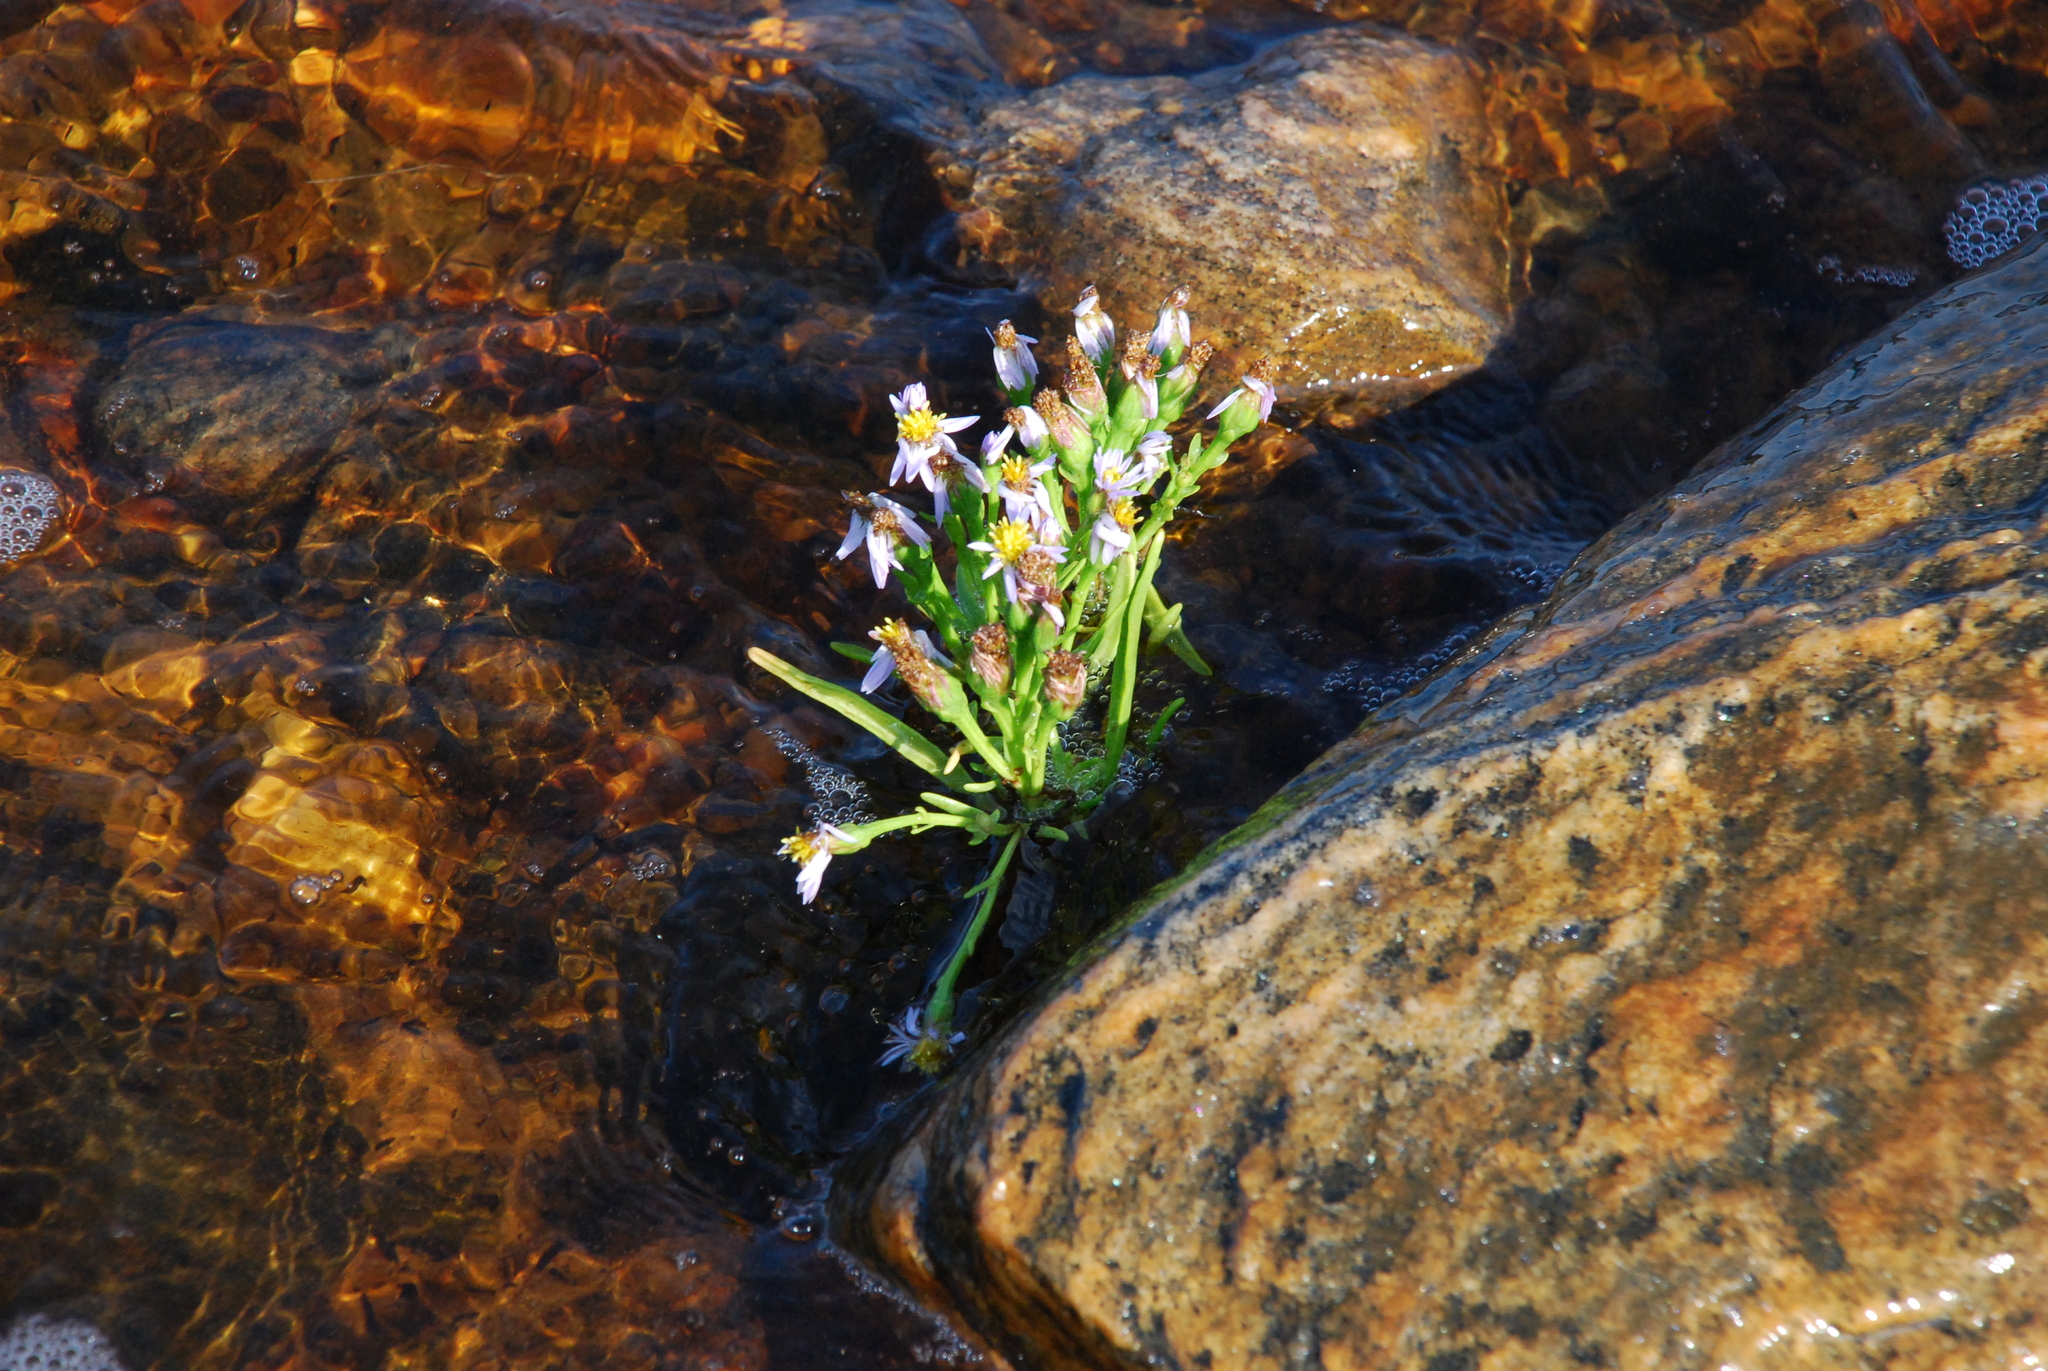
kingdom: Plantae
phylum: Tracheophyta
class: Magnoliopsida
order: Asterales
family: Asteraceae
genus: Tripolium
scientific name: Tripolium pannonicum
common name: Sea aster
